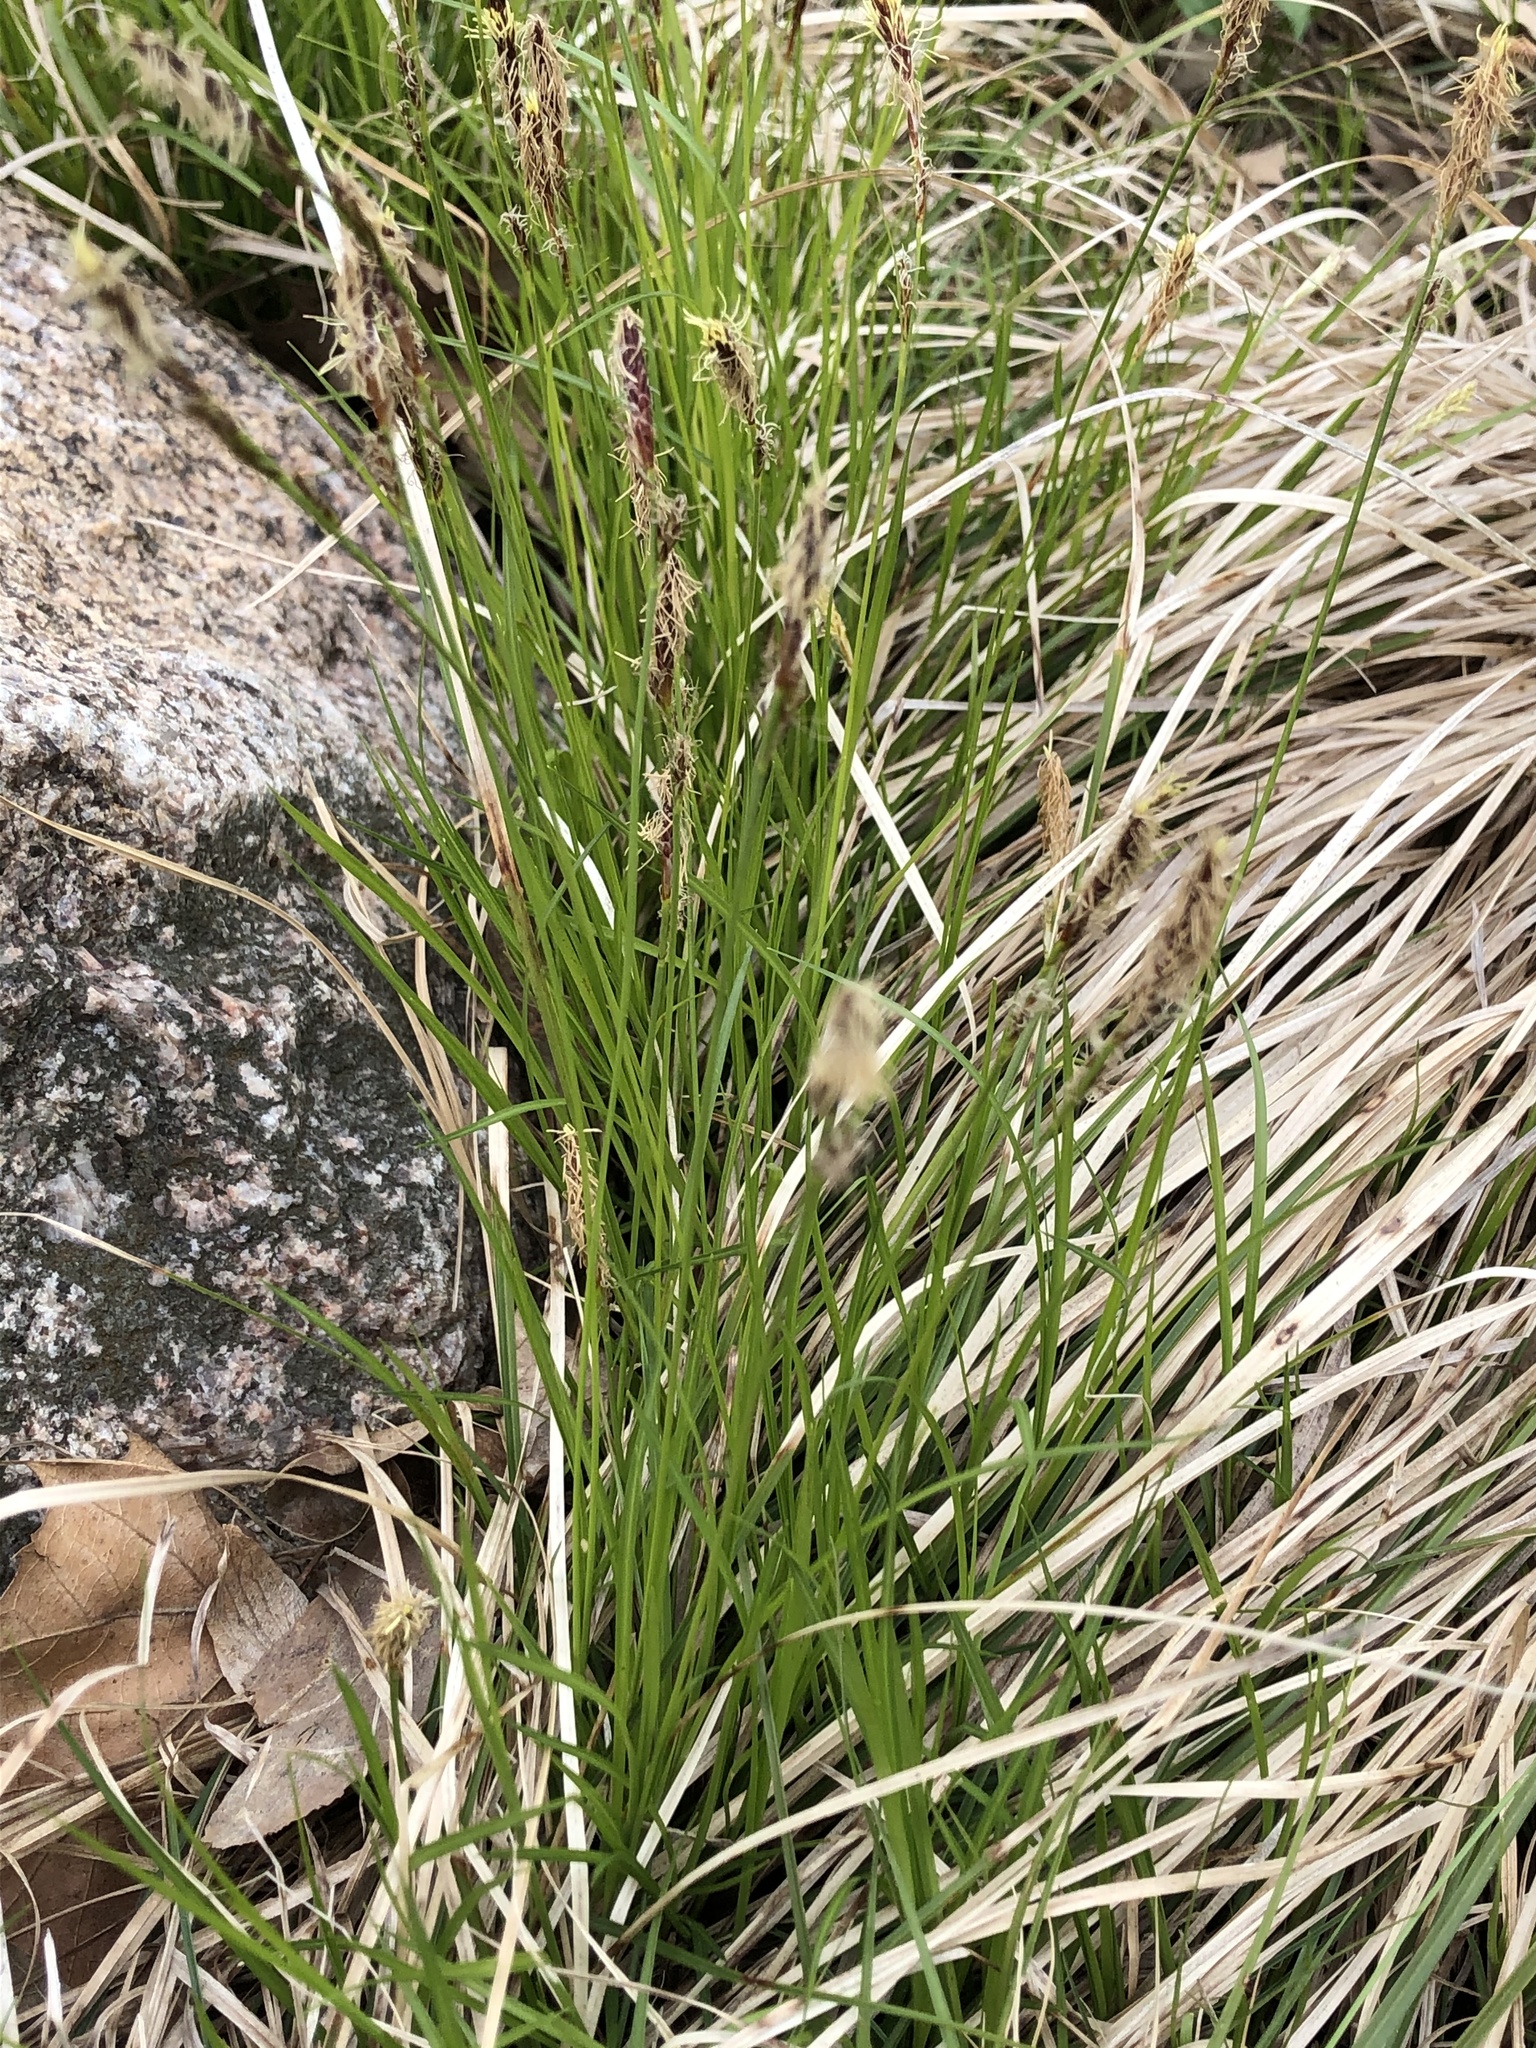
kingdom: Plantae
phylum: Tracheophyta
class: Liliopsida
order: Poales
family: Cyperaceae
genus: Carex
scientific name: Carex pensylvanica
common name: Common oak sedge
